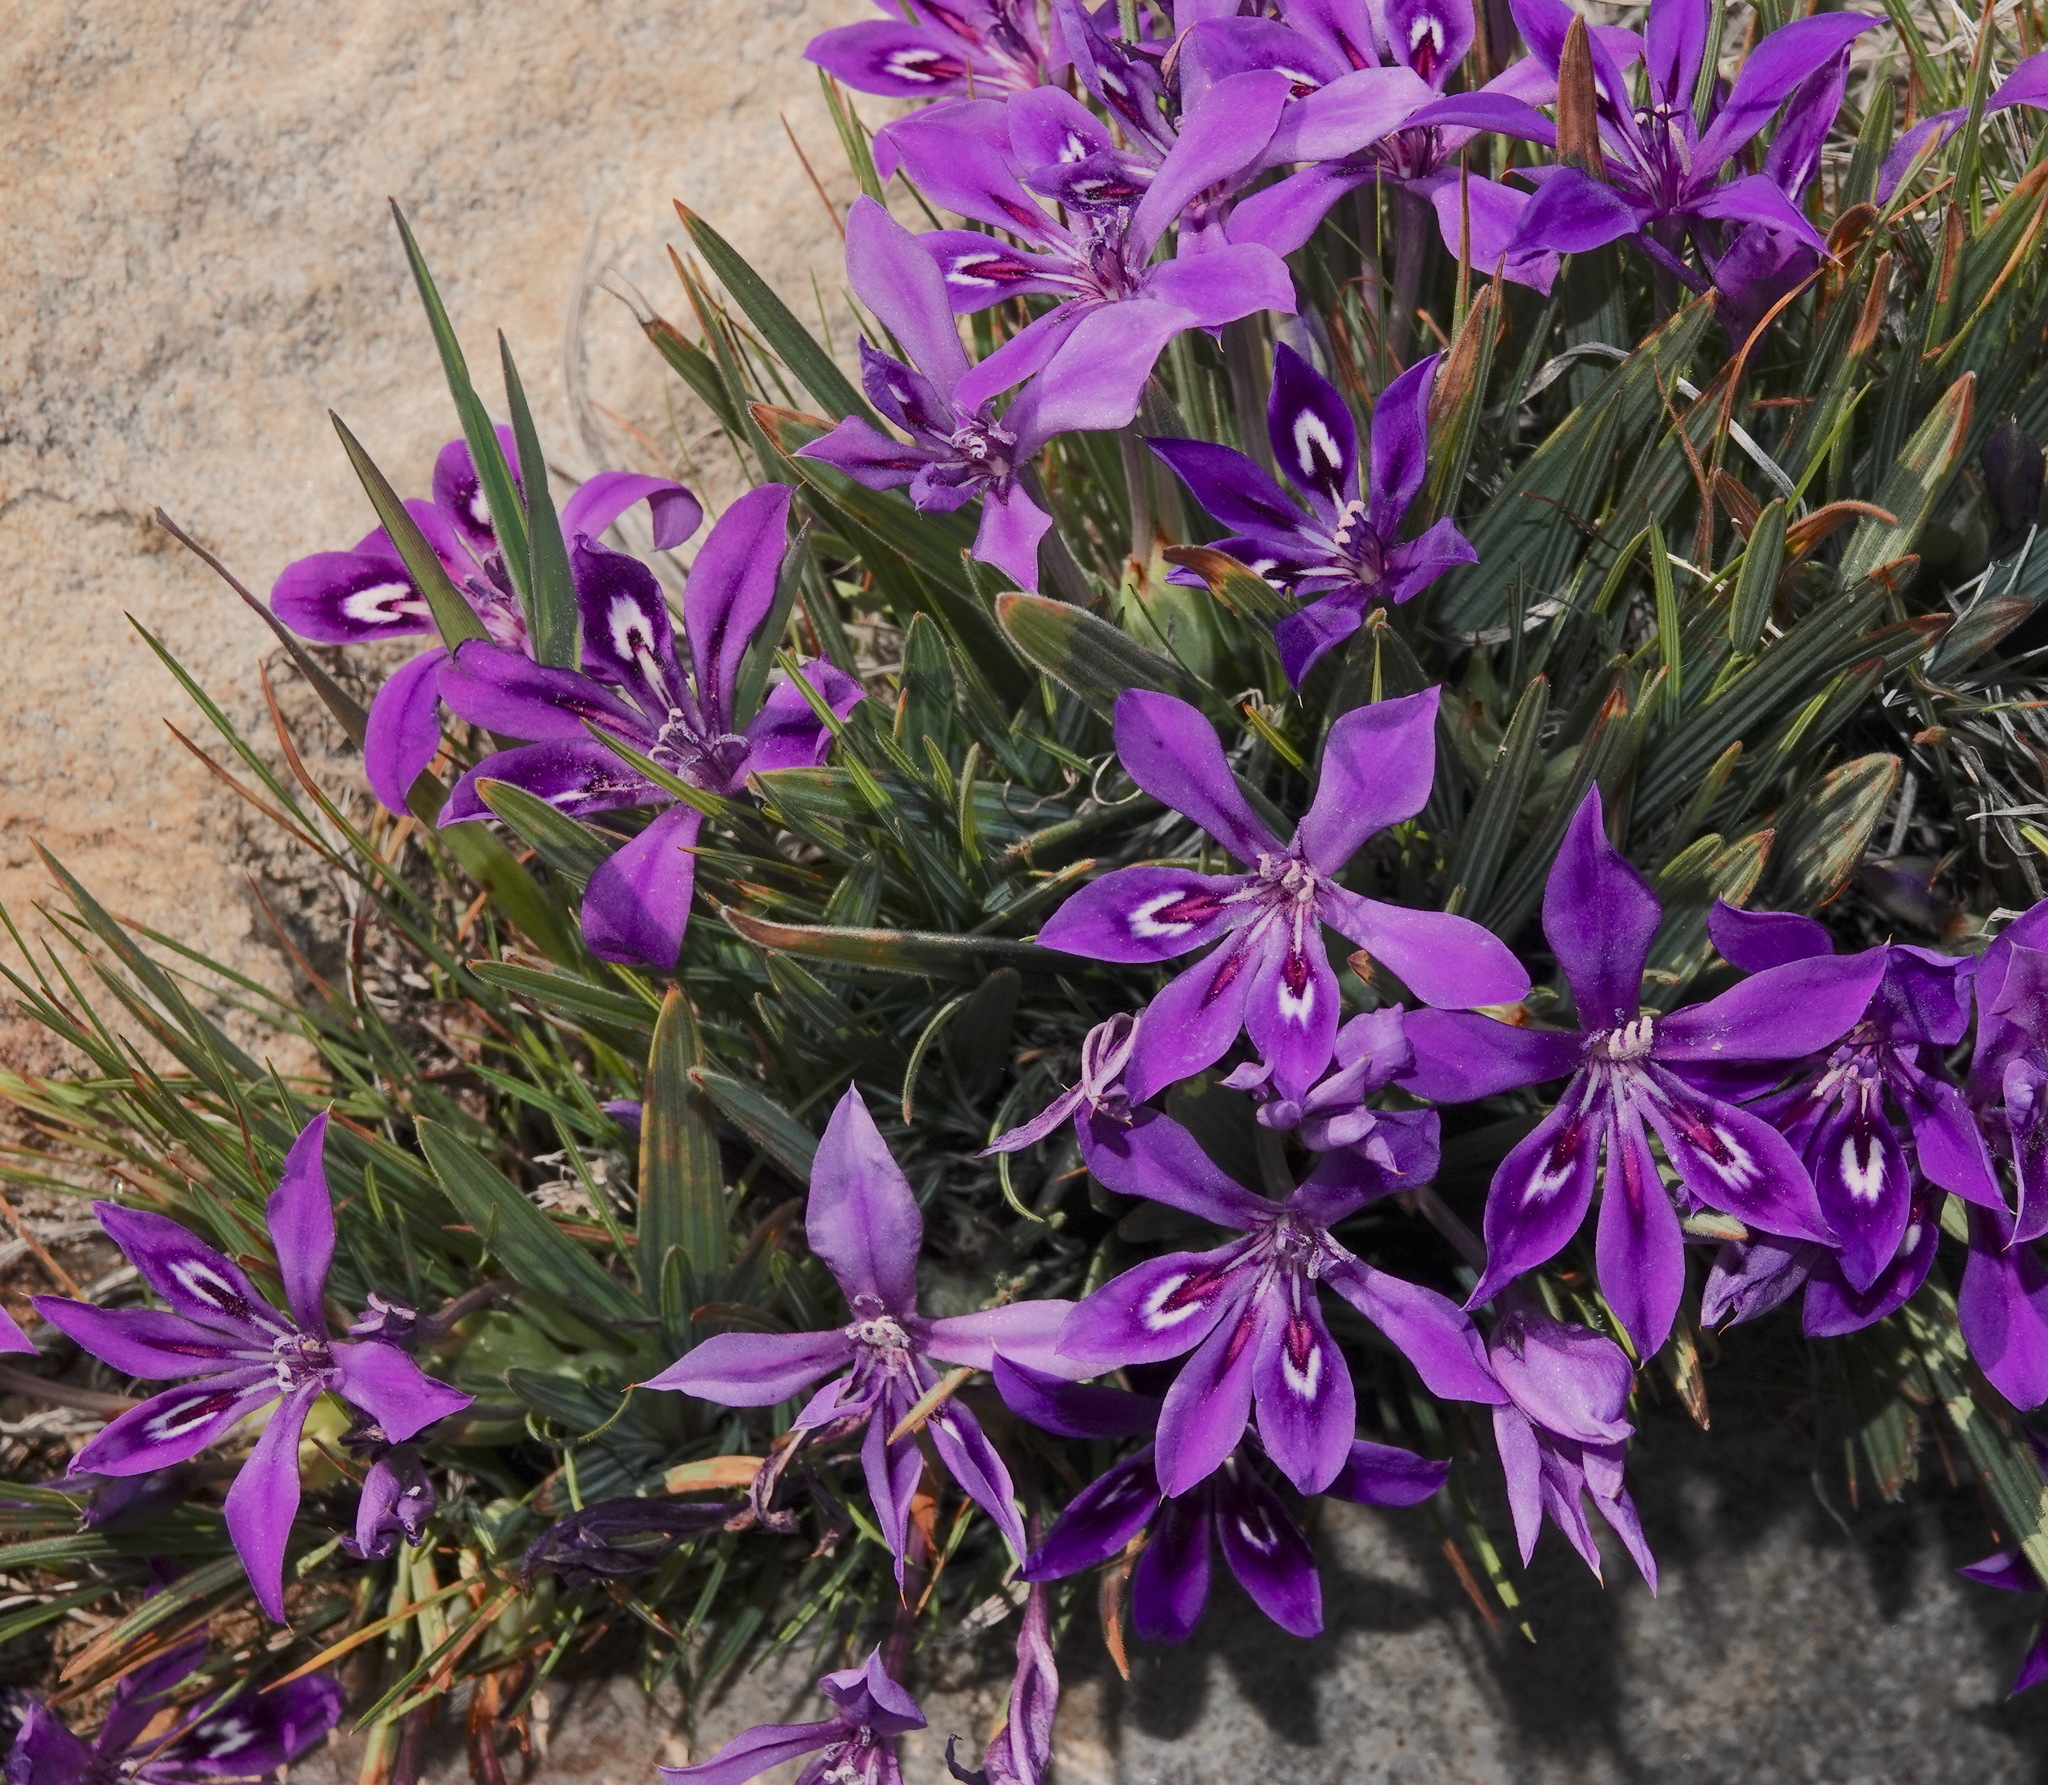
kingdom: Plantae
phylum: Tracheophyta
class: Liliopsida
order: Asparagales
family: Iridaceae
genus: Babiana
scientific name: Babiana framesii
